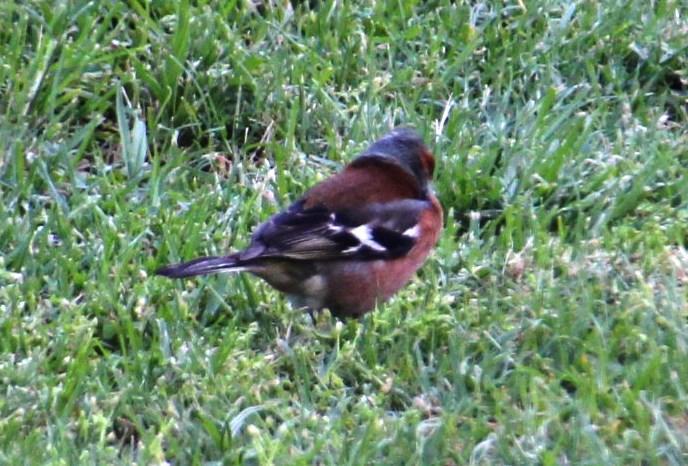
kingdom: Animalia
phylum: Chordata
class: Aves
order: Passeriformes
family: Fringillidae
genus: Fringilla
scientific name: Fringilla coelebs
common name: Common chaffinch
